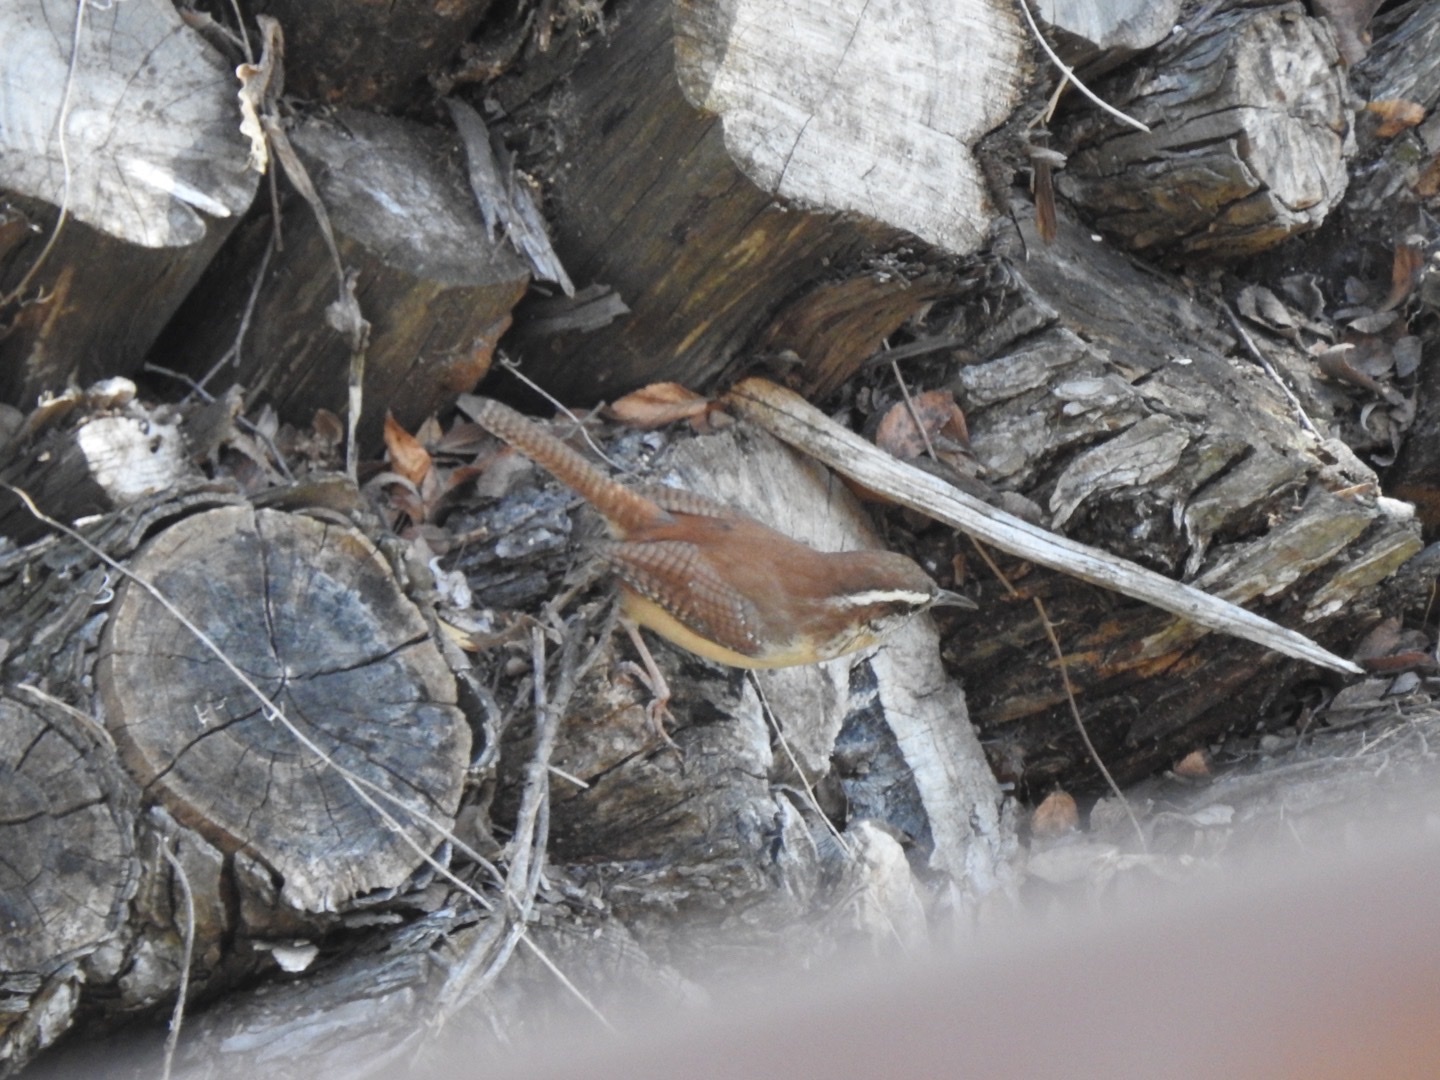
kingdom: Animalia
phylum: Chordata
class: Aves
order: Passeriformes
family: Troglodytidae
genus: Thryothorus
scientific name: Thryothorus ludovicianus
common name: Carolina wren
